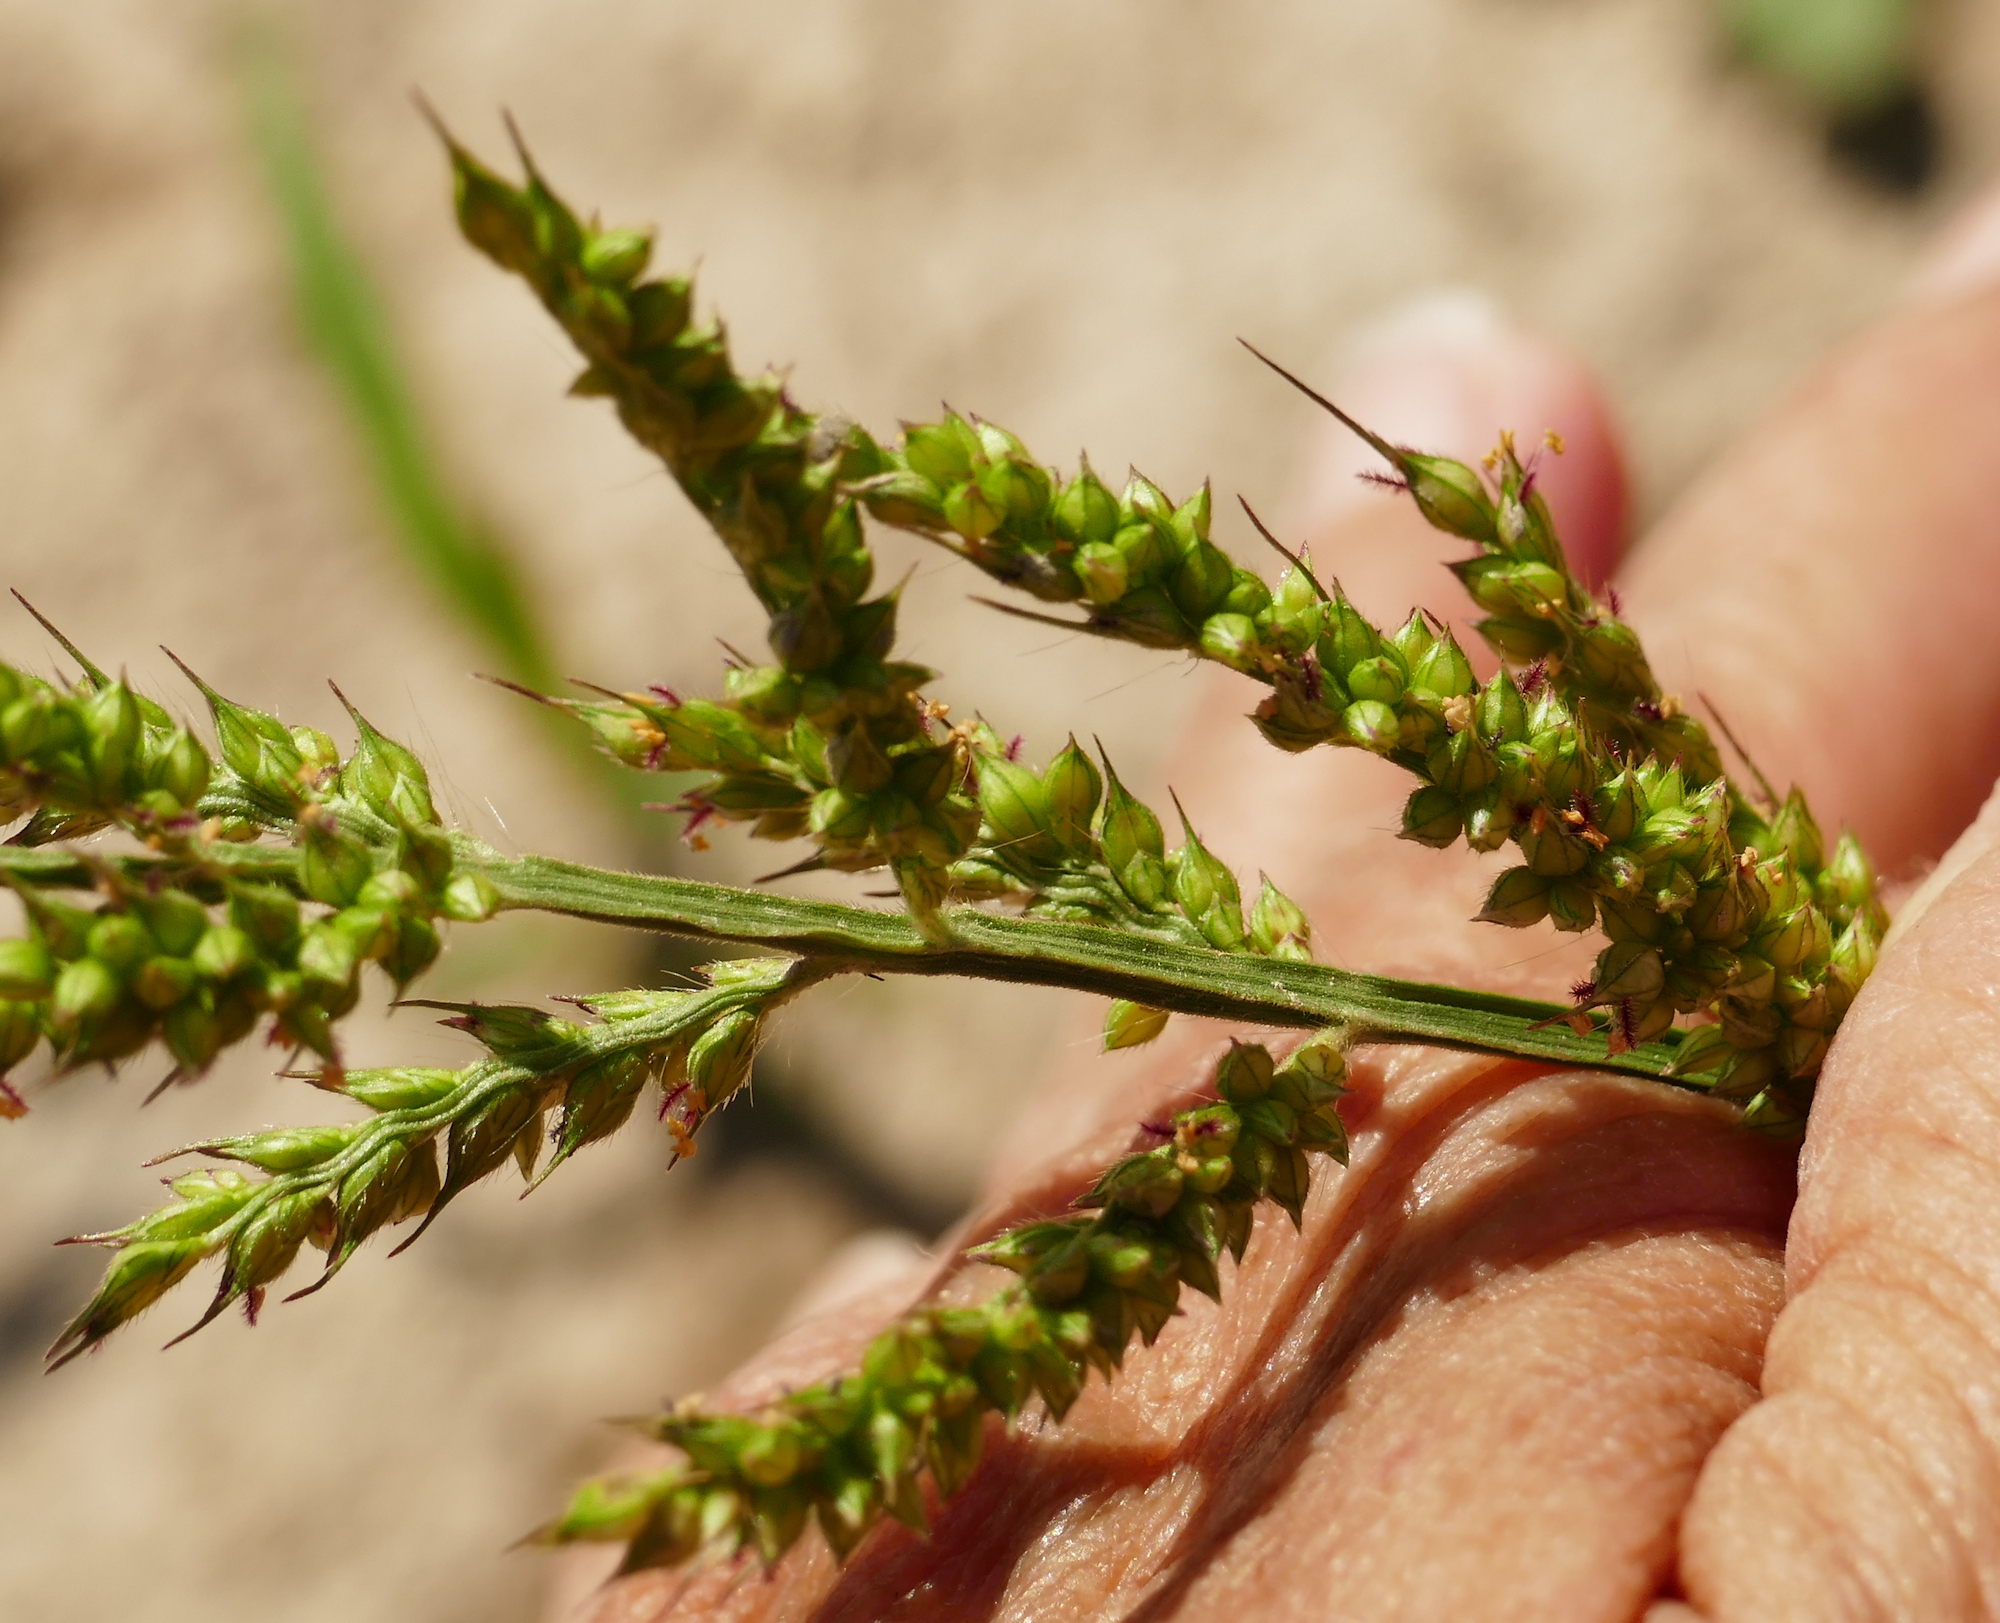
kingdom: Plantae
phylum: Tracheophyta
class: Liliopsida
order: Poales
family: Poaceae
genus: Echinochloa
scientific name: Echinochloa crus-galli
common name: Cockspur
